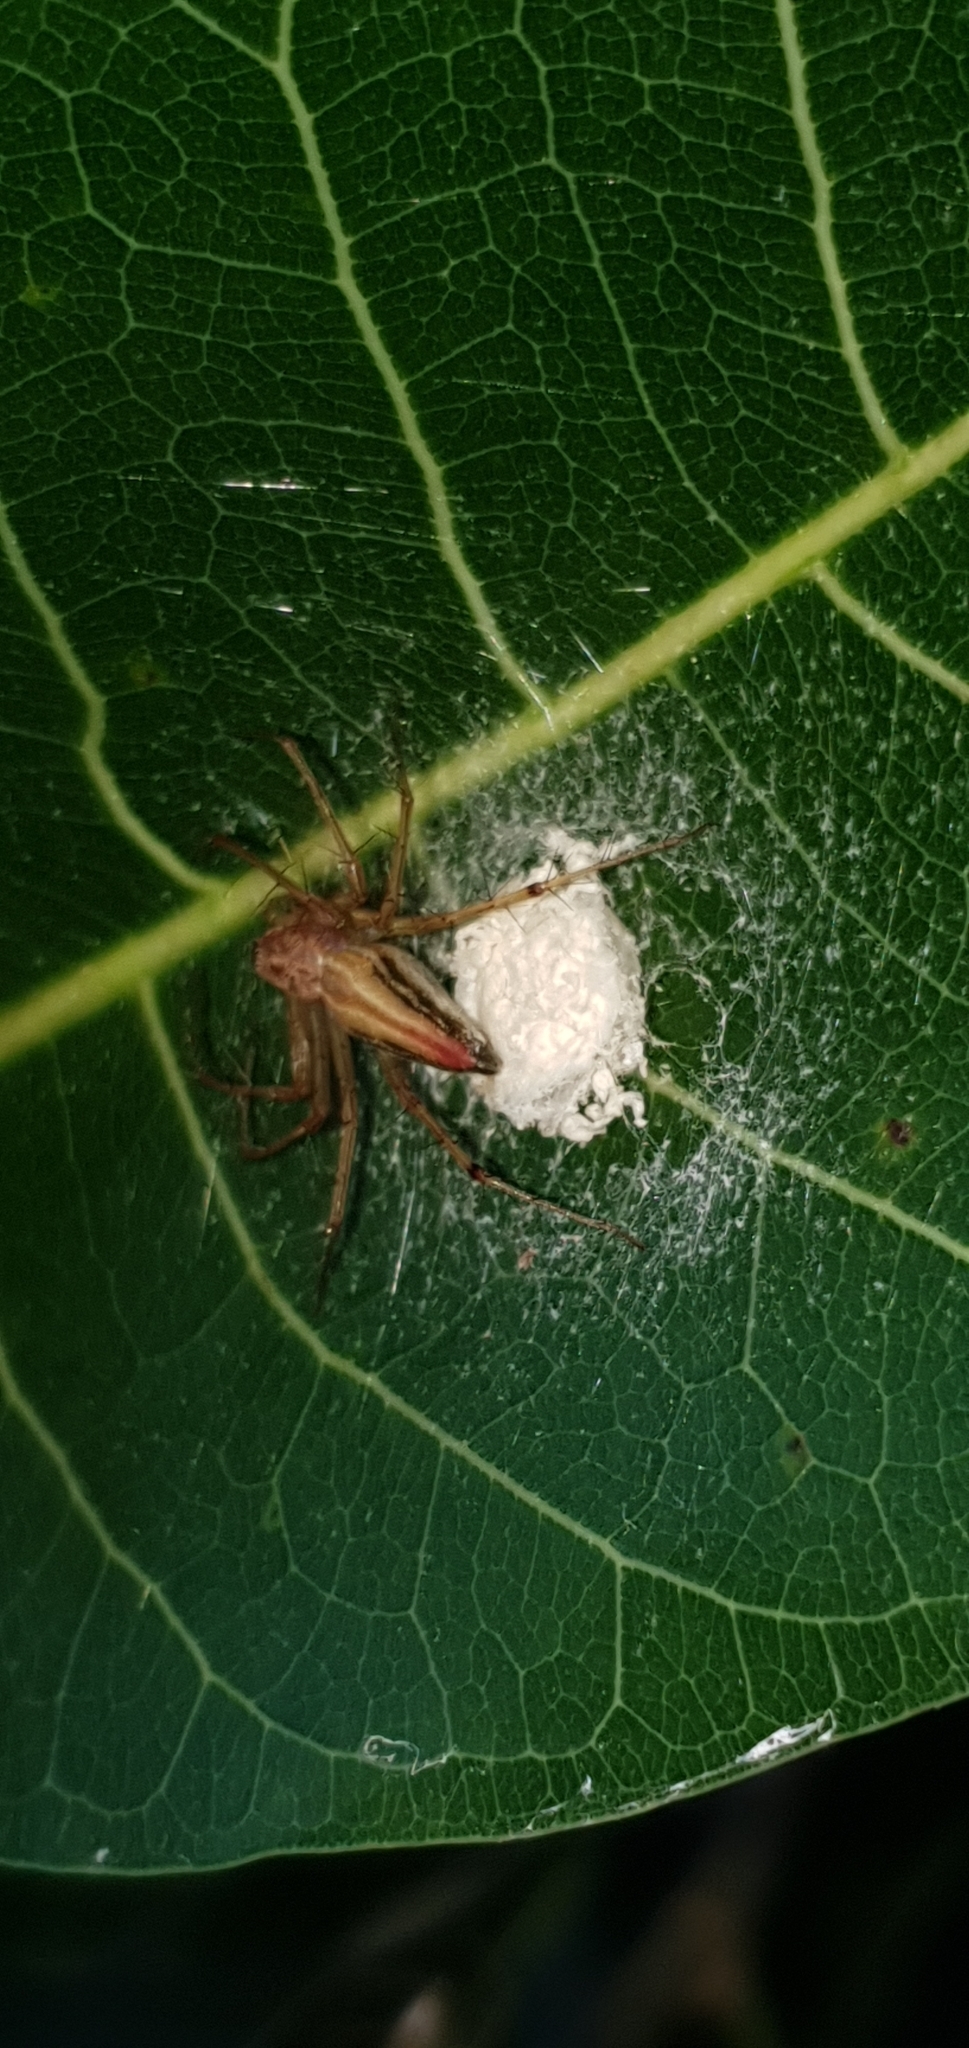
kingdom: Animalia
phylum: Arthropoda
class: Arachnida
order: Araneae
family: Oxyopidae
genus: Oxyopes
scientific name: Oxyopes macilentus
